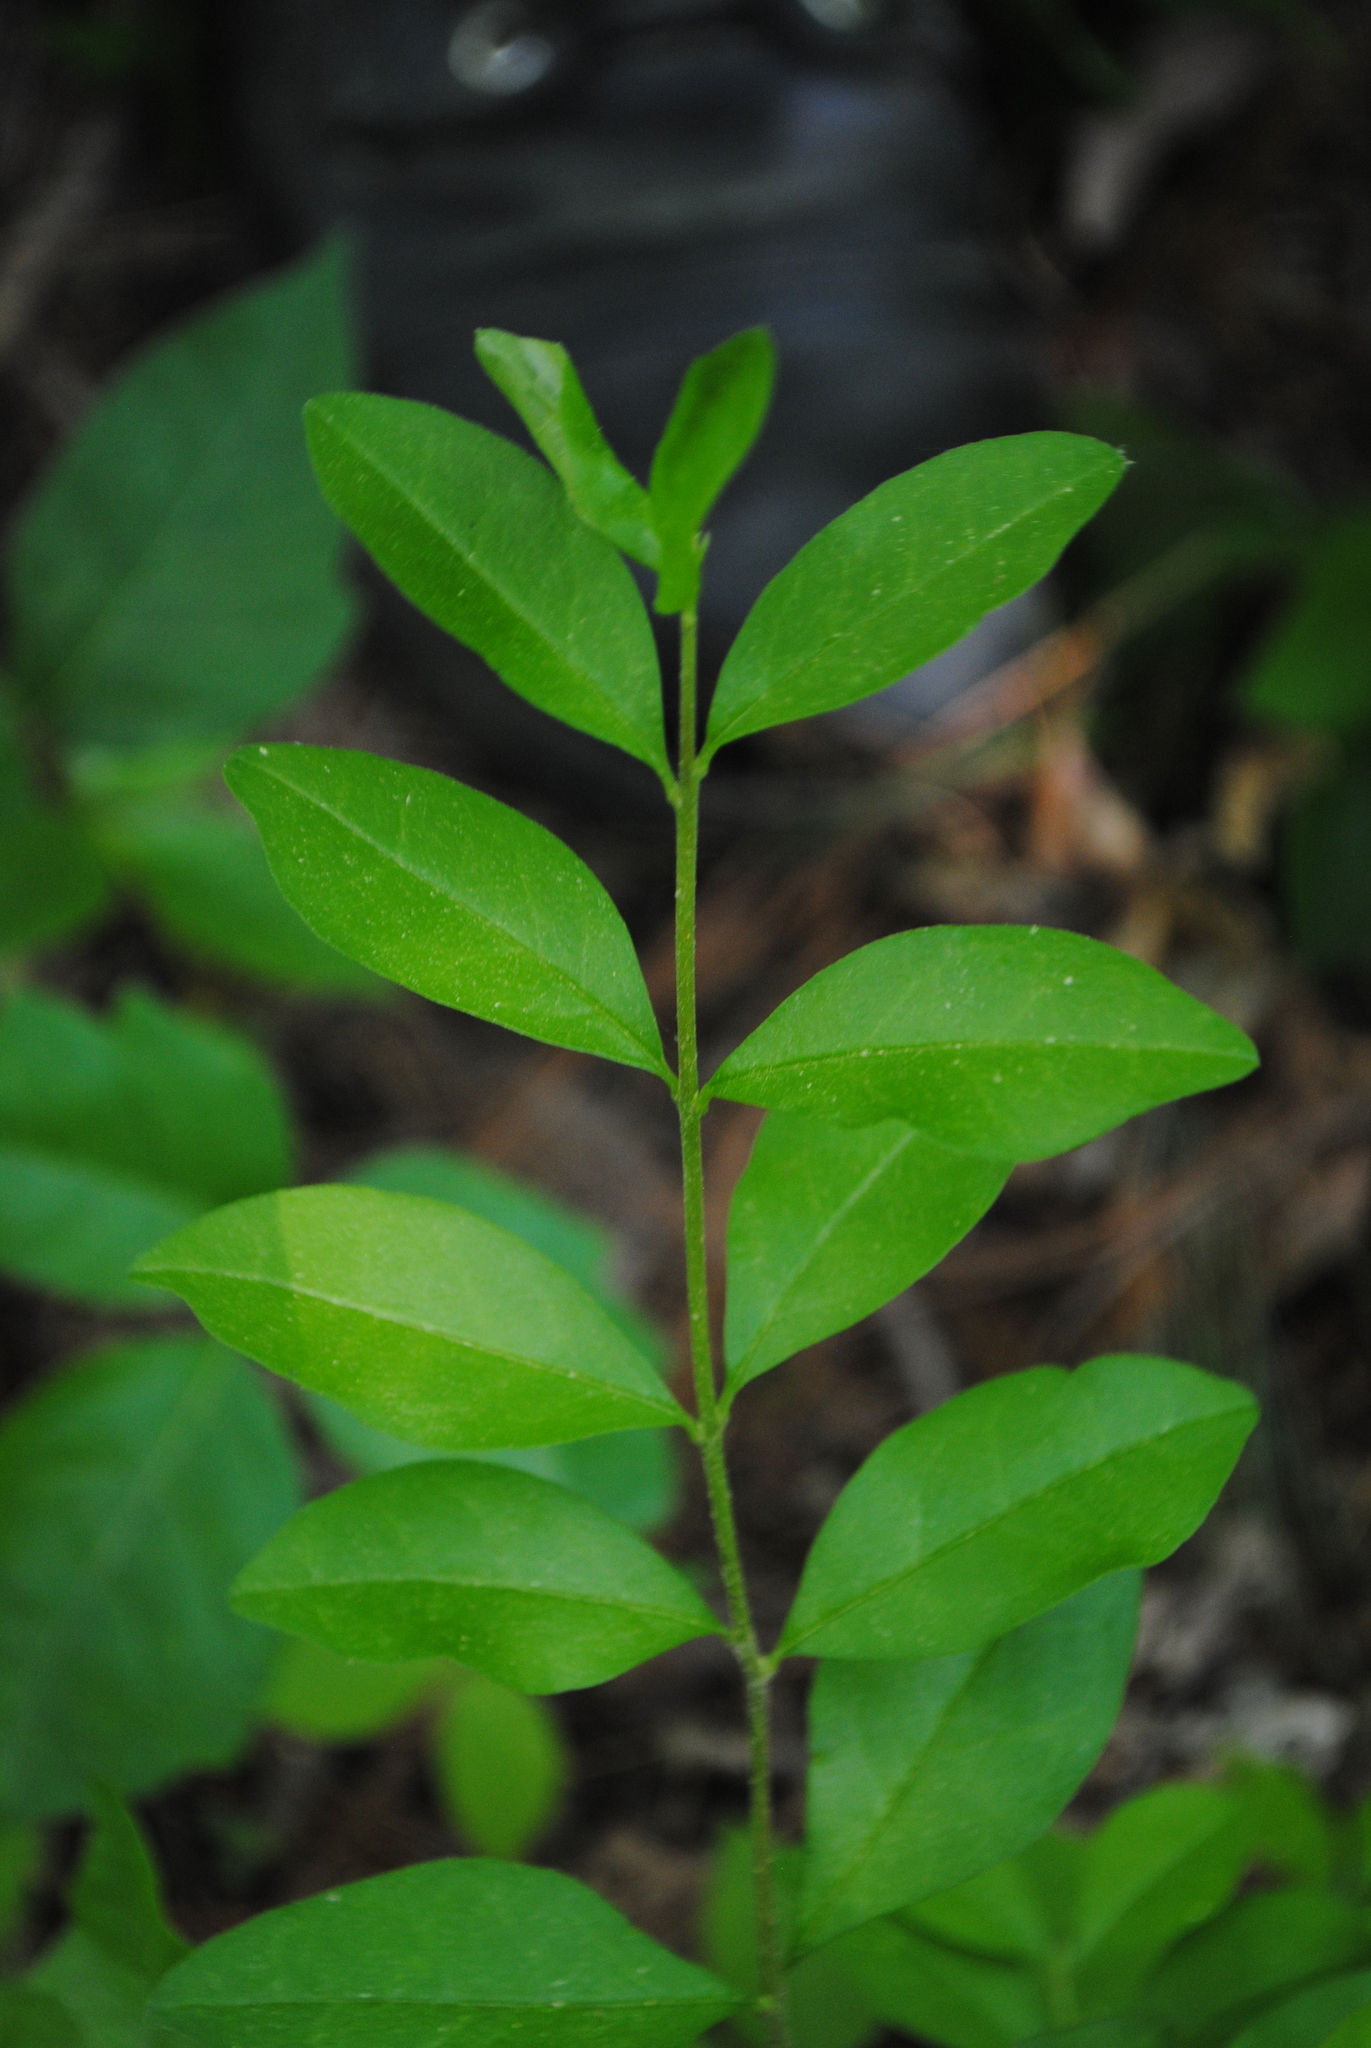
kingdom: Plantae
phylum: Tracheophyta
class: Magnoliopsida
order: Lamiales
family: Oleaceae
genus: Ligustrum
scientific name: Ligustrum obtusifolium
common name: Border privet
